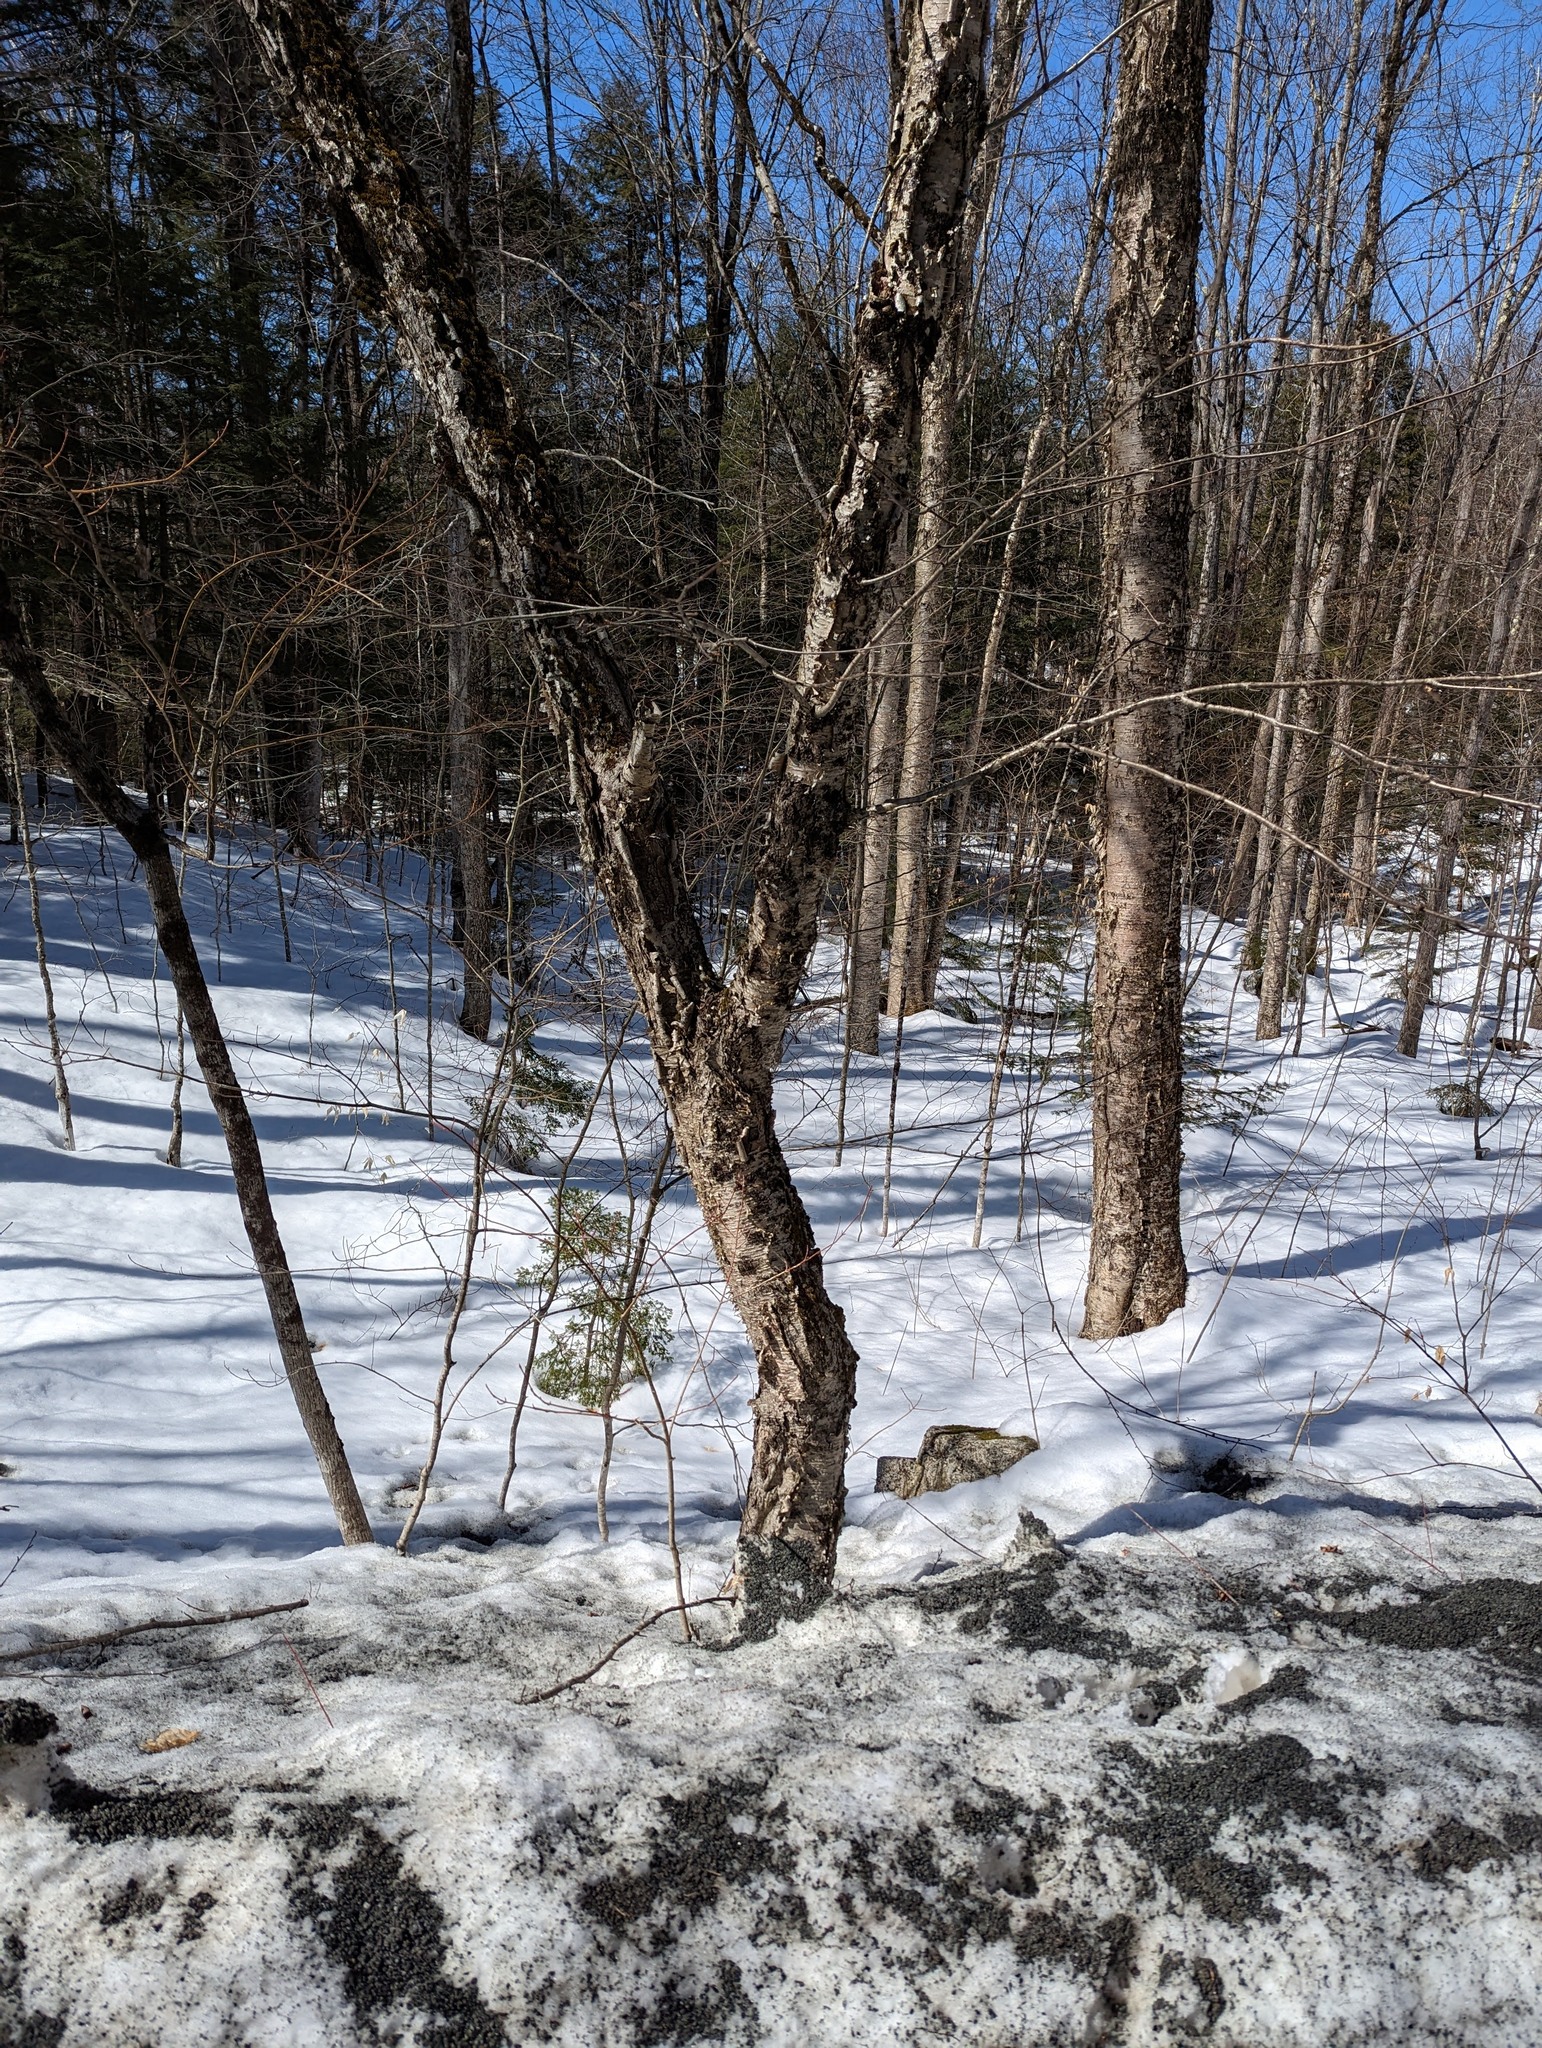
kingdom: Plantae
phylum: Tracheophyta
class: Magnoliopsida
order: Fagales
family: Betulaceae
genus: Betula
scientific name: Betula alleghaniensis
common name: Yellow birch
